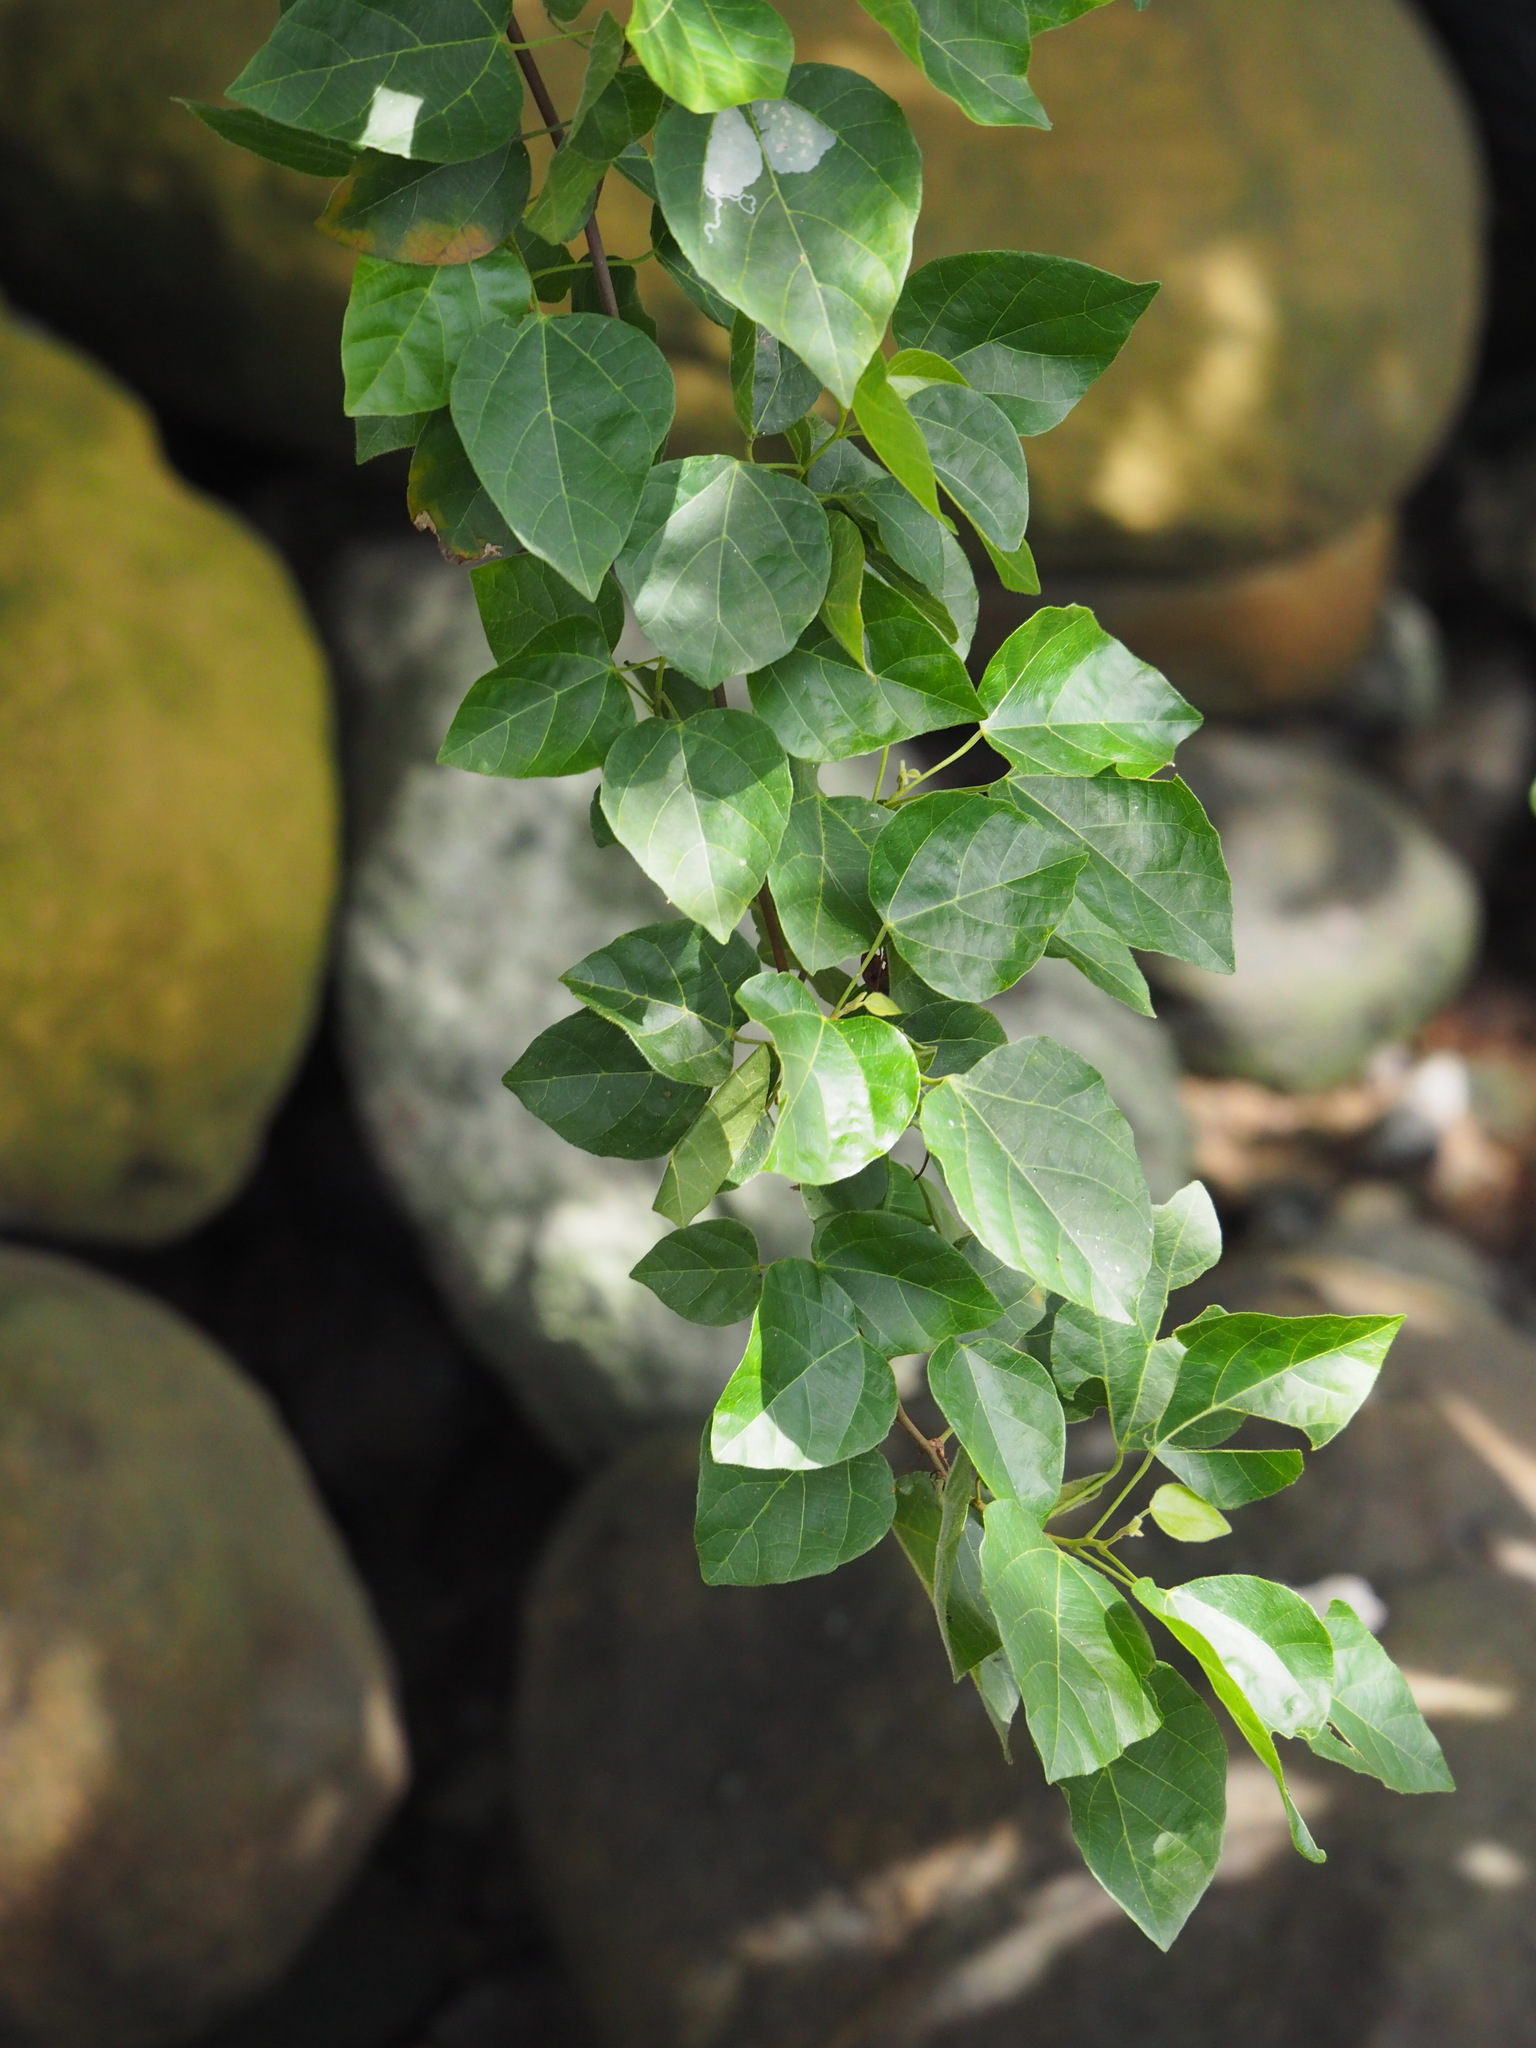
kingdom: Plantae
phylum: Tracheophyta
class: Magnoliopsida
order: Malpighiales
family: Euphorbiaceae
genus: Mallotus
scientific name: Mallotus repandus
